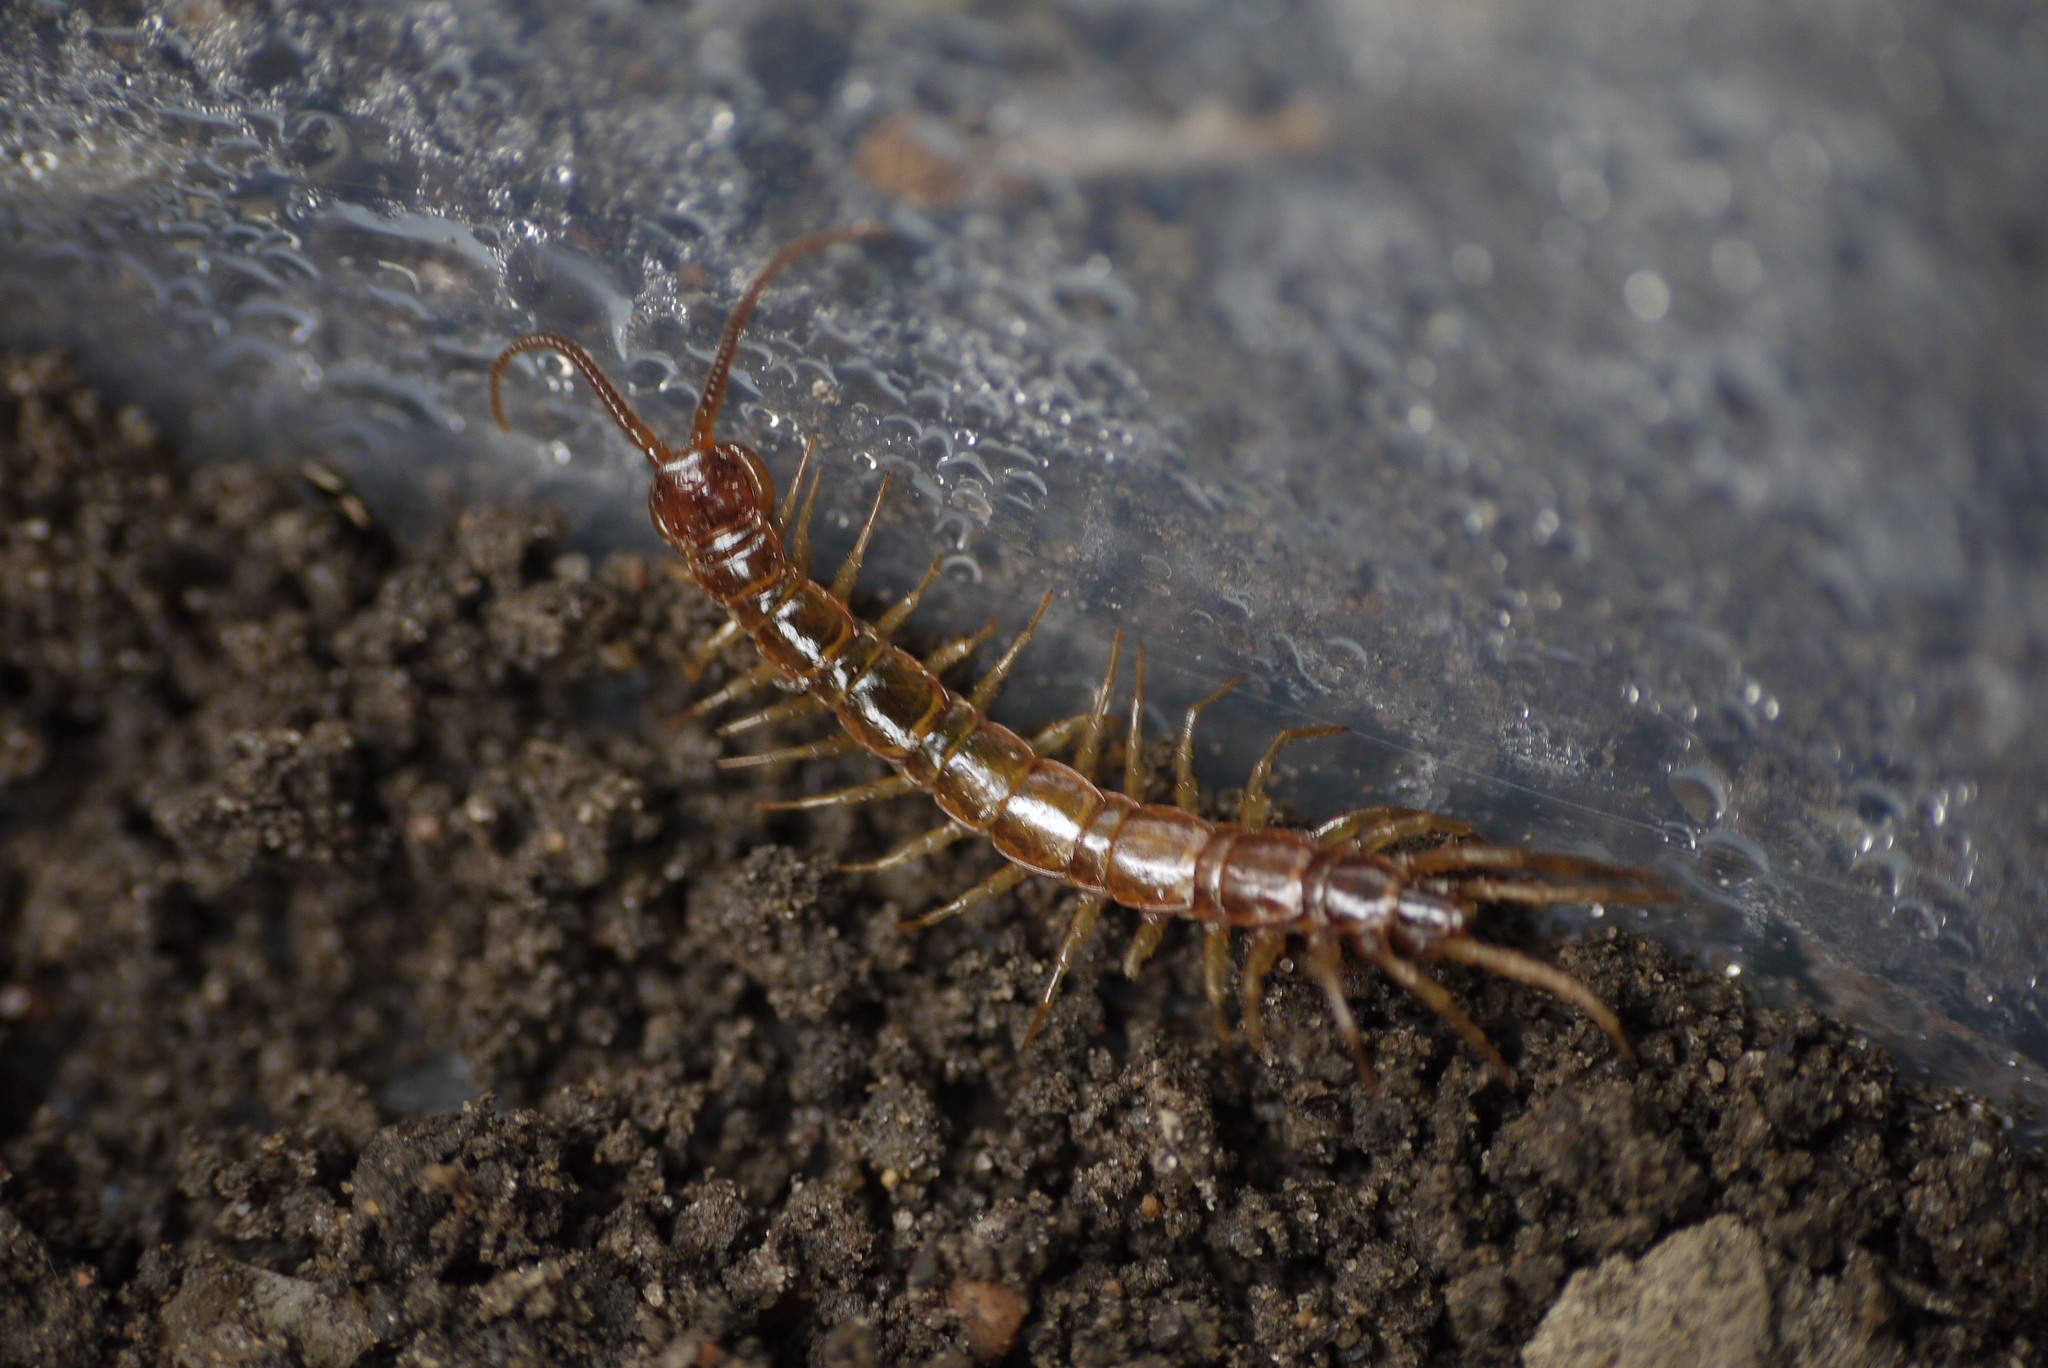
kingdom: Animalia
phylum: Arthropoda
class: Chilopoda
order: Lithobiomorpha
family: Lithobiidae
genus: Lithobius
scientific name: Lithobius forficatus
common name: Centipede
